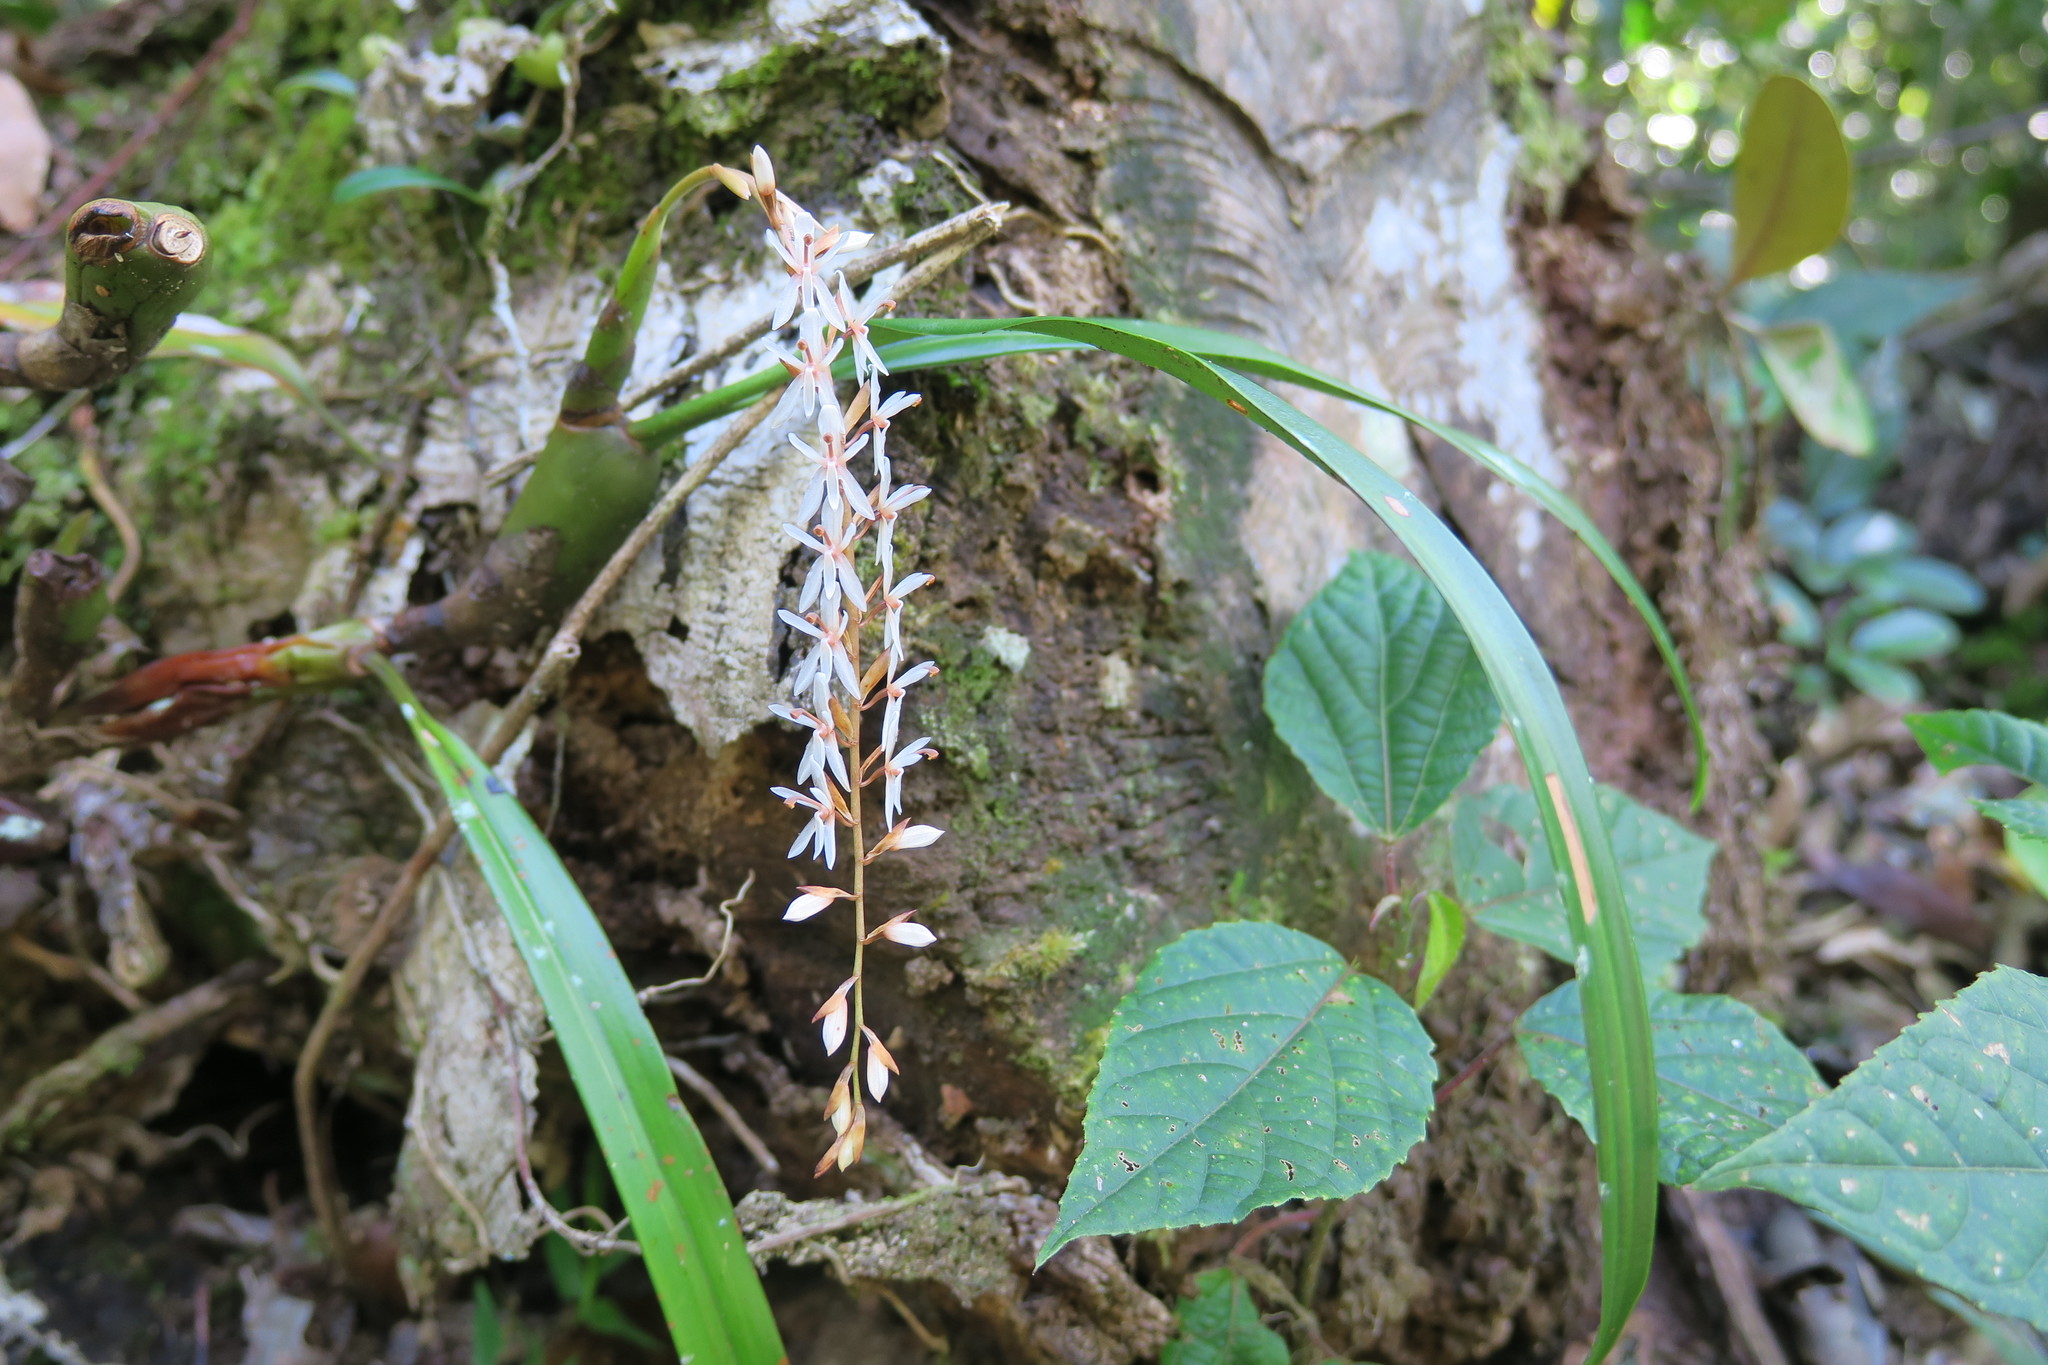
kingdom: Plantae
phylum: Tracheophyta
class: Liliopsida
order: Asparagales
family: Orchidaceae
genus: Coelogyne
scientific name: Coelogyne fusca
